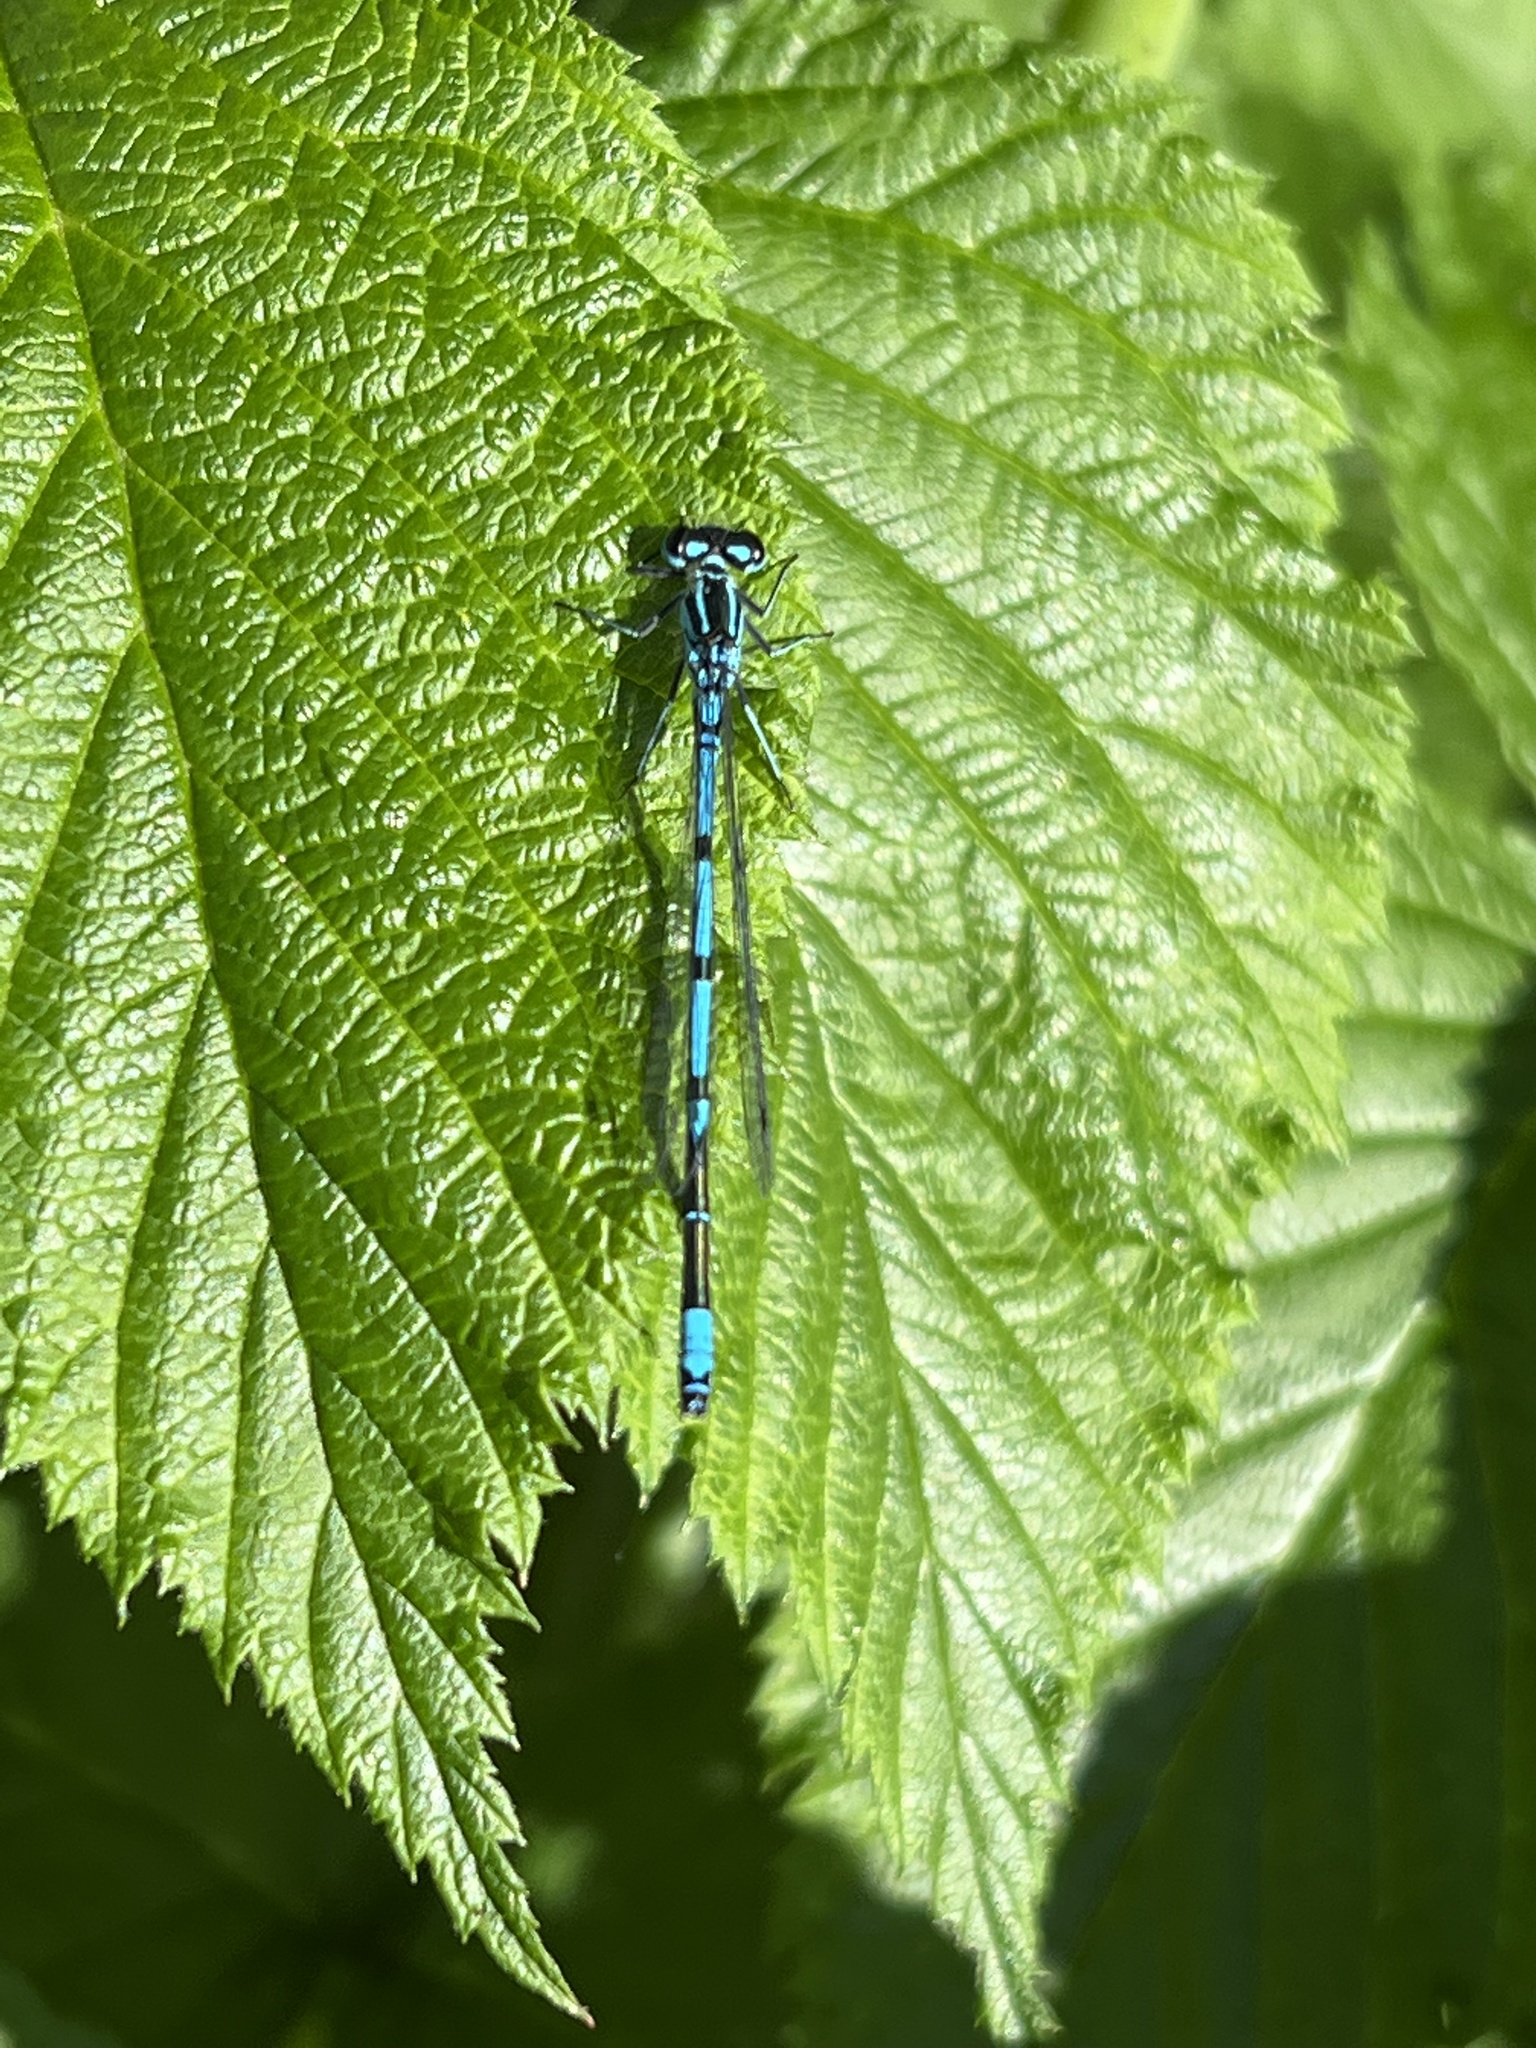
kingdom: Animalia
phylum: Arthropoda
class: Insecta
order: Odonata
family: Coenagrionidae
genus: Coenagrion
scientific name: Coenagrion puella
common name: Azure damselfly
